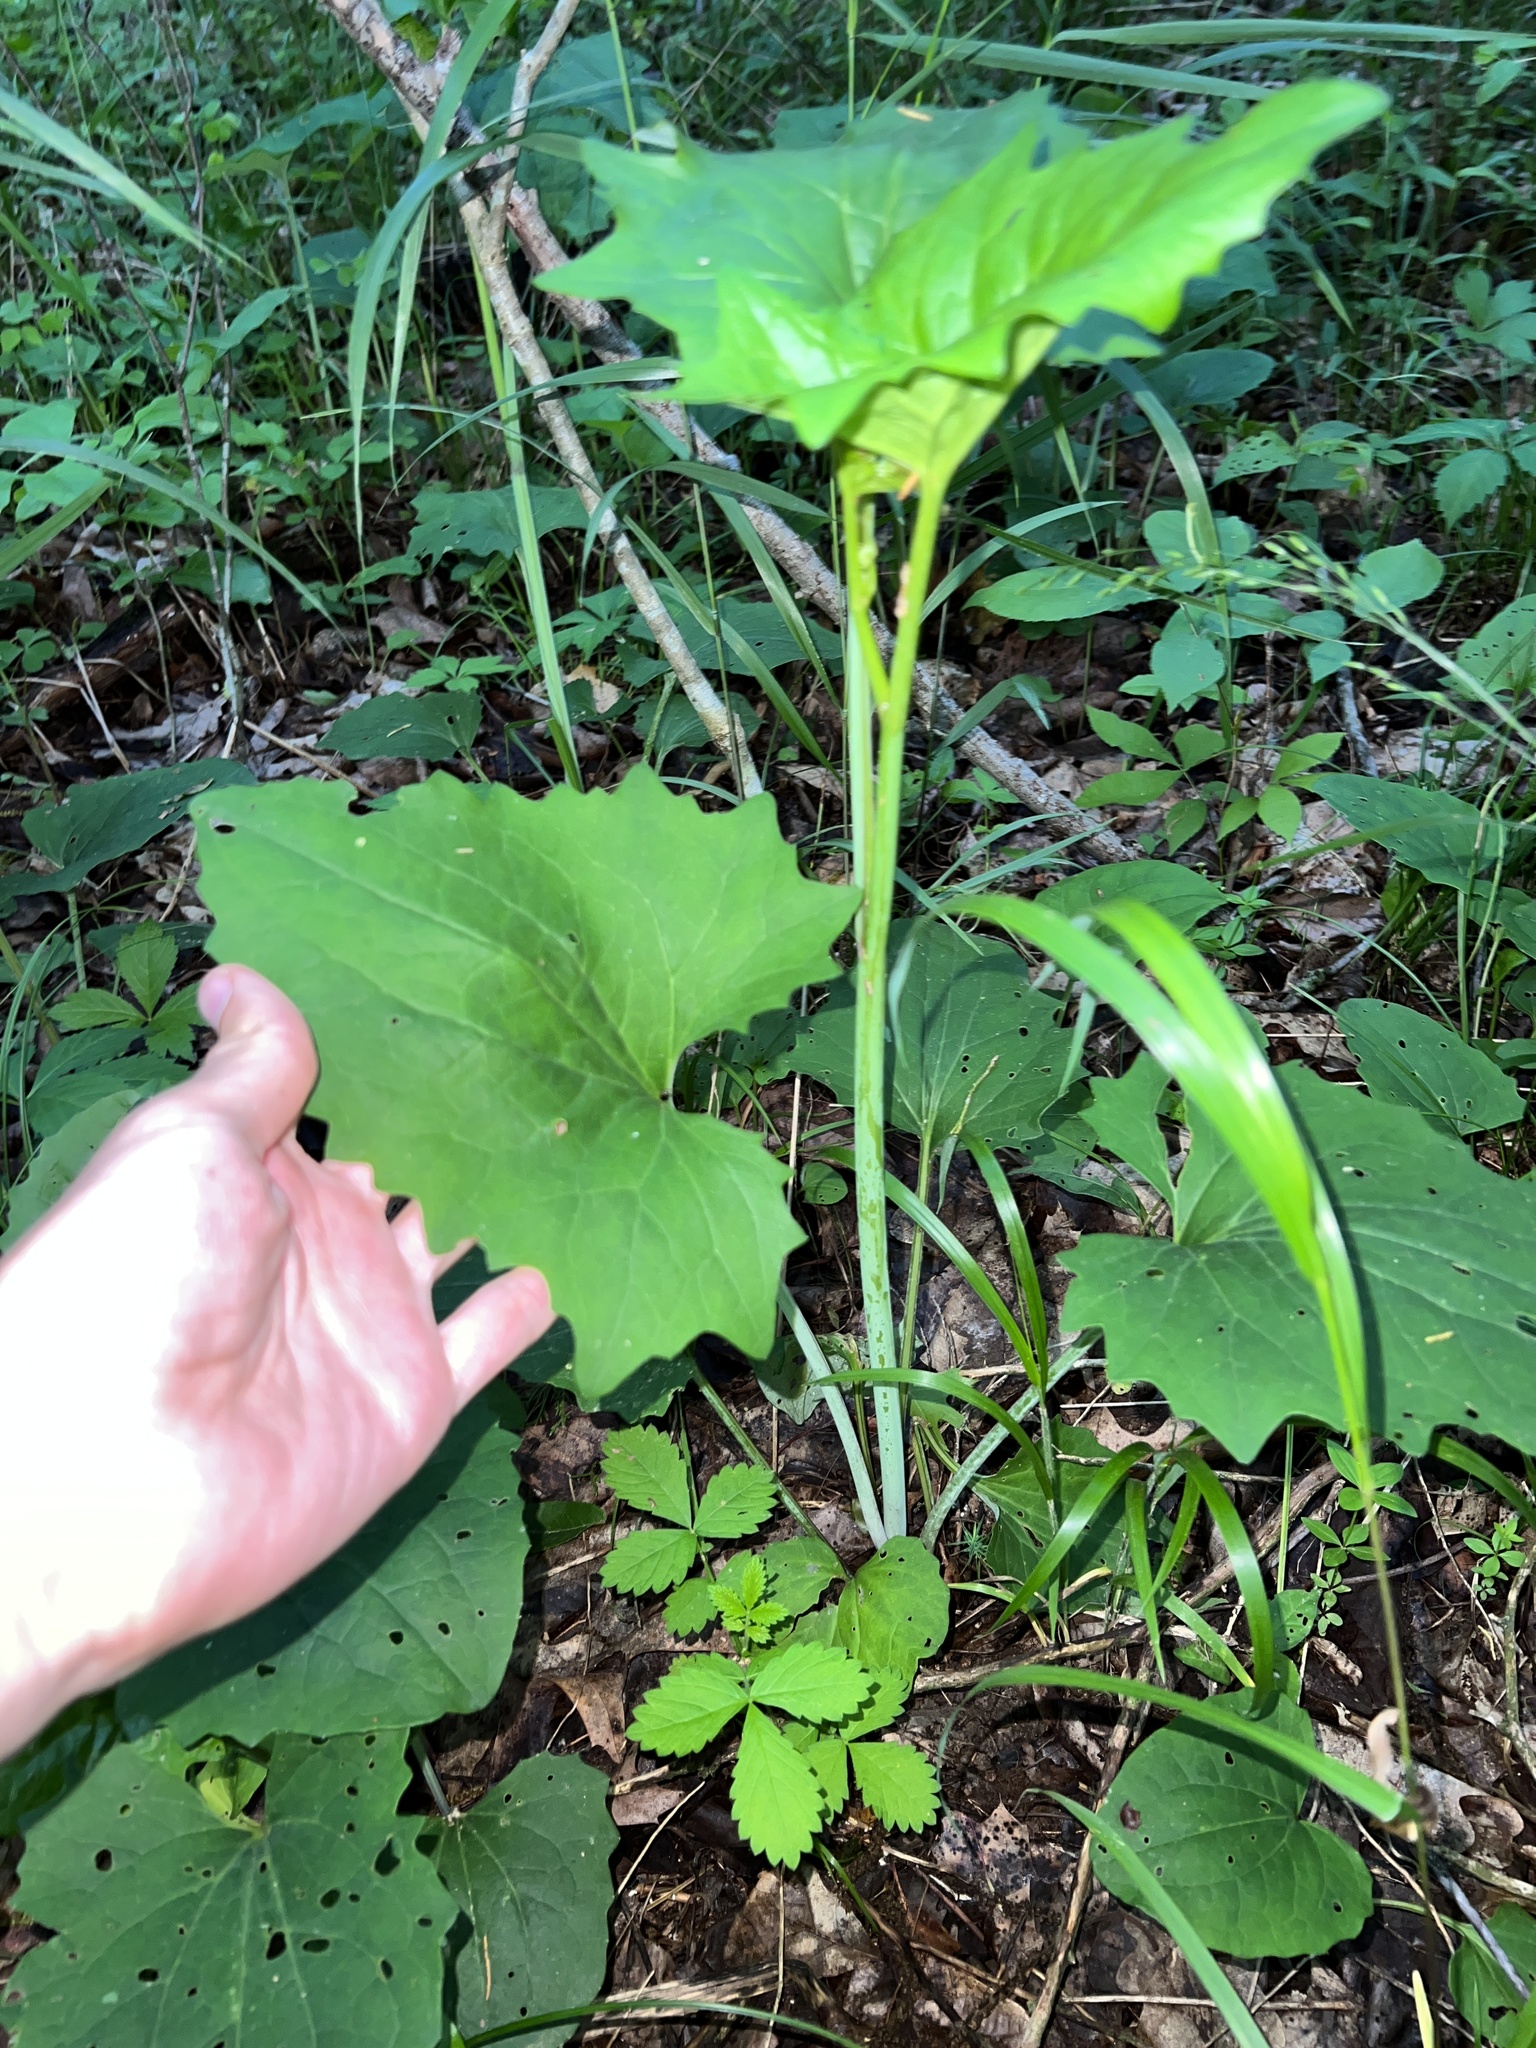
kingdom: Plantae
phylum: Tracheophyta
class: Magnoliopsida
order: Asterales
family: Asteraceae
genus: Arnoglossum
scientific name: Arnoglossum atriplicifolium
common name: Pale indian-plantain
